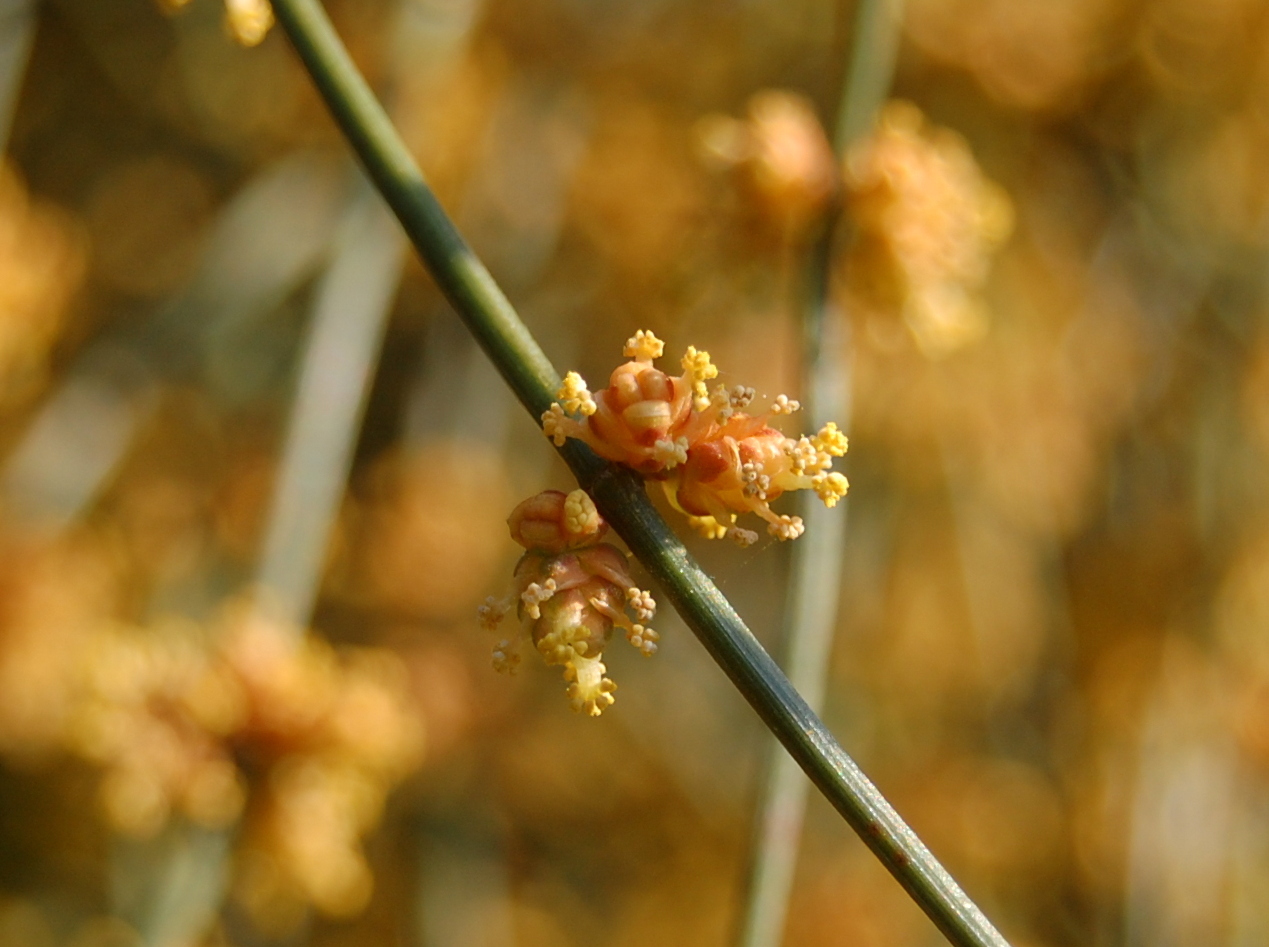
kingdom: Plantae
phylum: Tracheophyta
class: Gnetopsida
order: Ephedrales
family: Ephedraceae
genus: Ephedra
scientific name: Ephedra tweedieana
